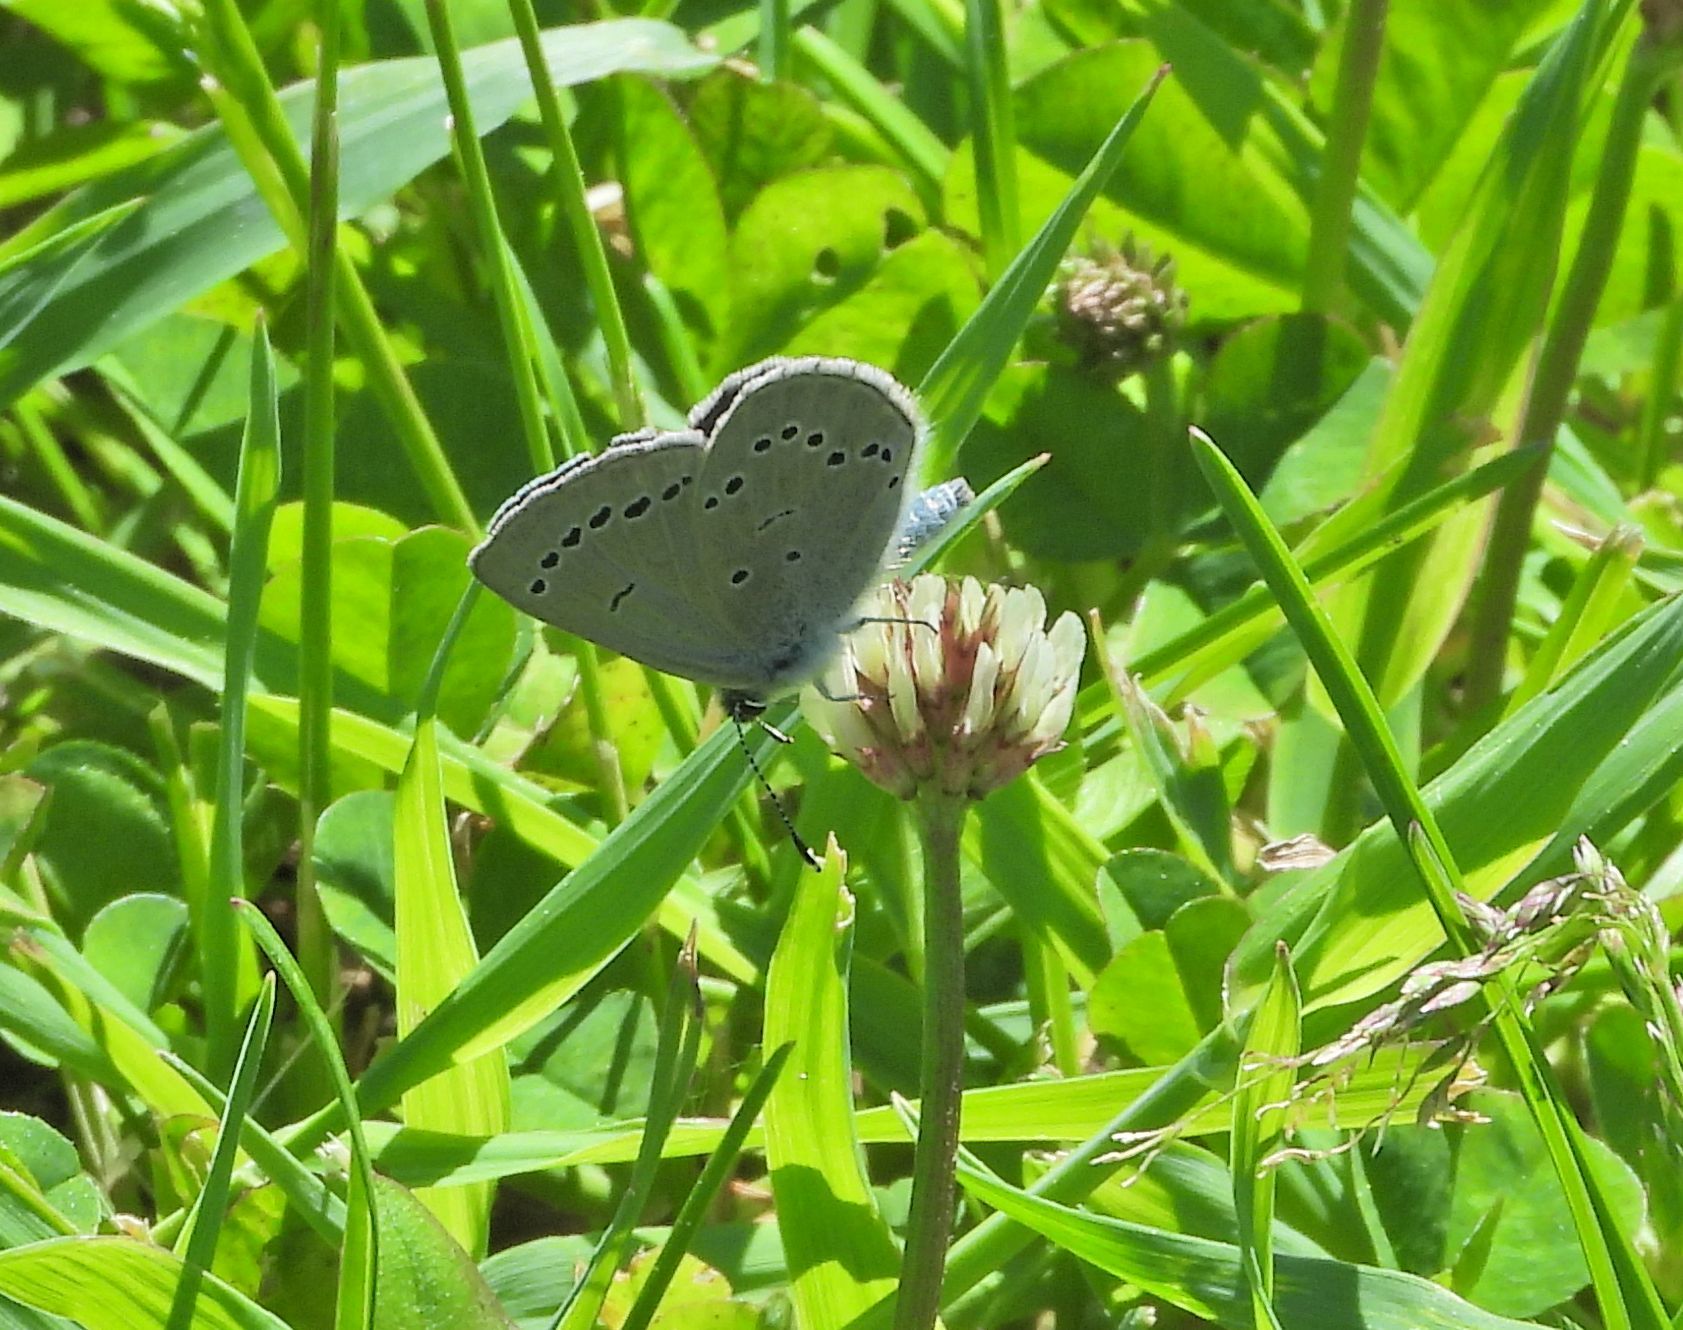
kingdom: Animalia
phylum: Arthropoda
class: Insecta
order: Lepidoptera
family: Lycaenidae
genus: Glaucopsyche
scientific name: Glaucopsyche lygdamus
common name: Silvery blue
